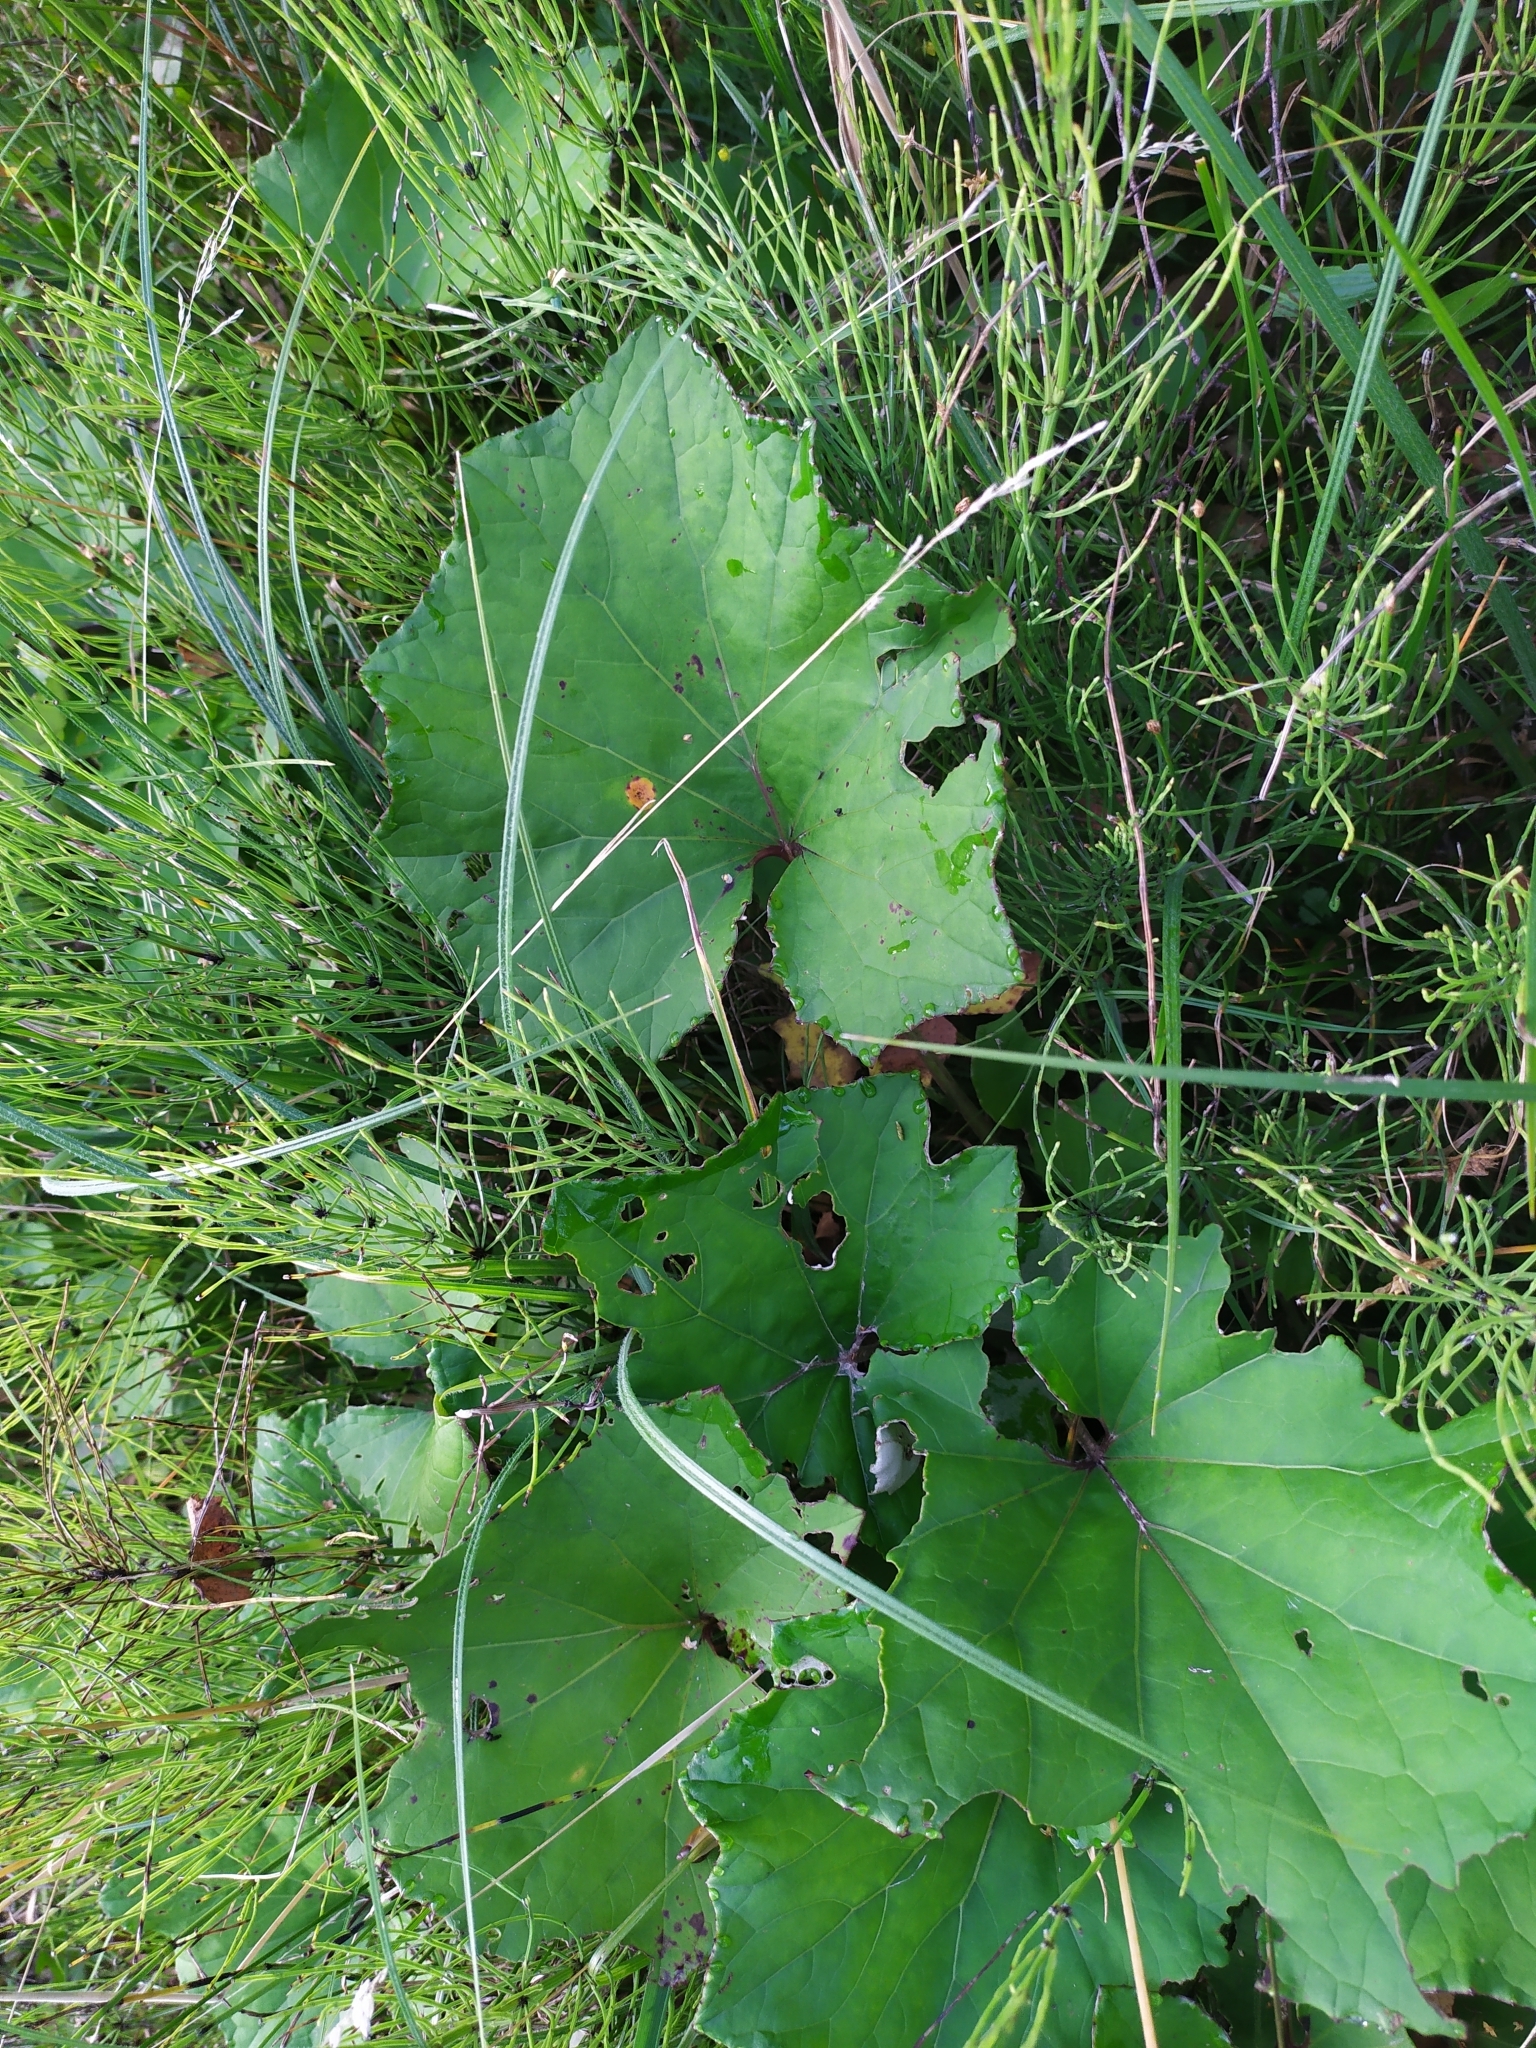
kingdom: Plantae
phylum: Tracheophyta
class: Magnoliopsida
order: Asterales
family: Asteraceae
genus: Tussilago
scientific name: Tussilago farfara
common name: Coltsfoot
